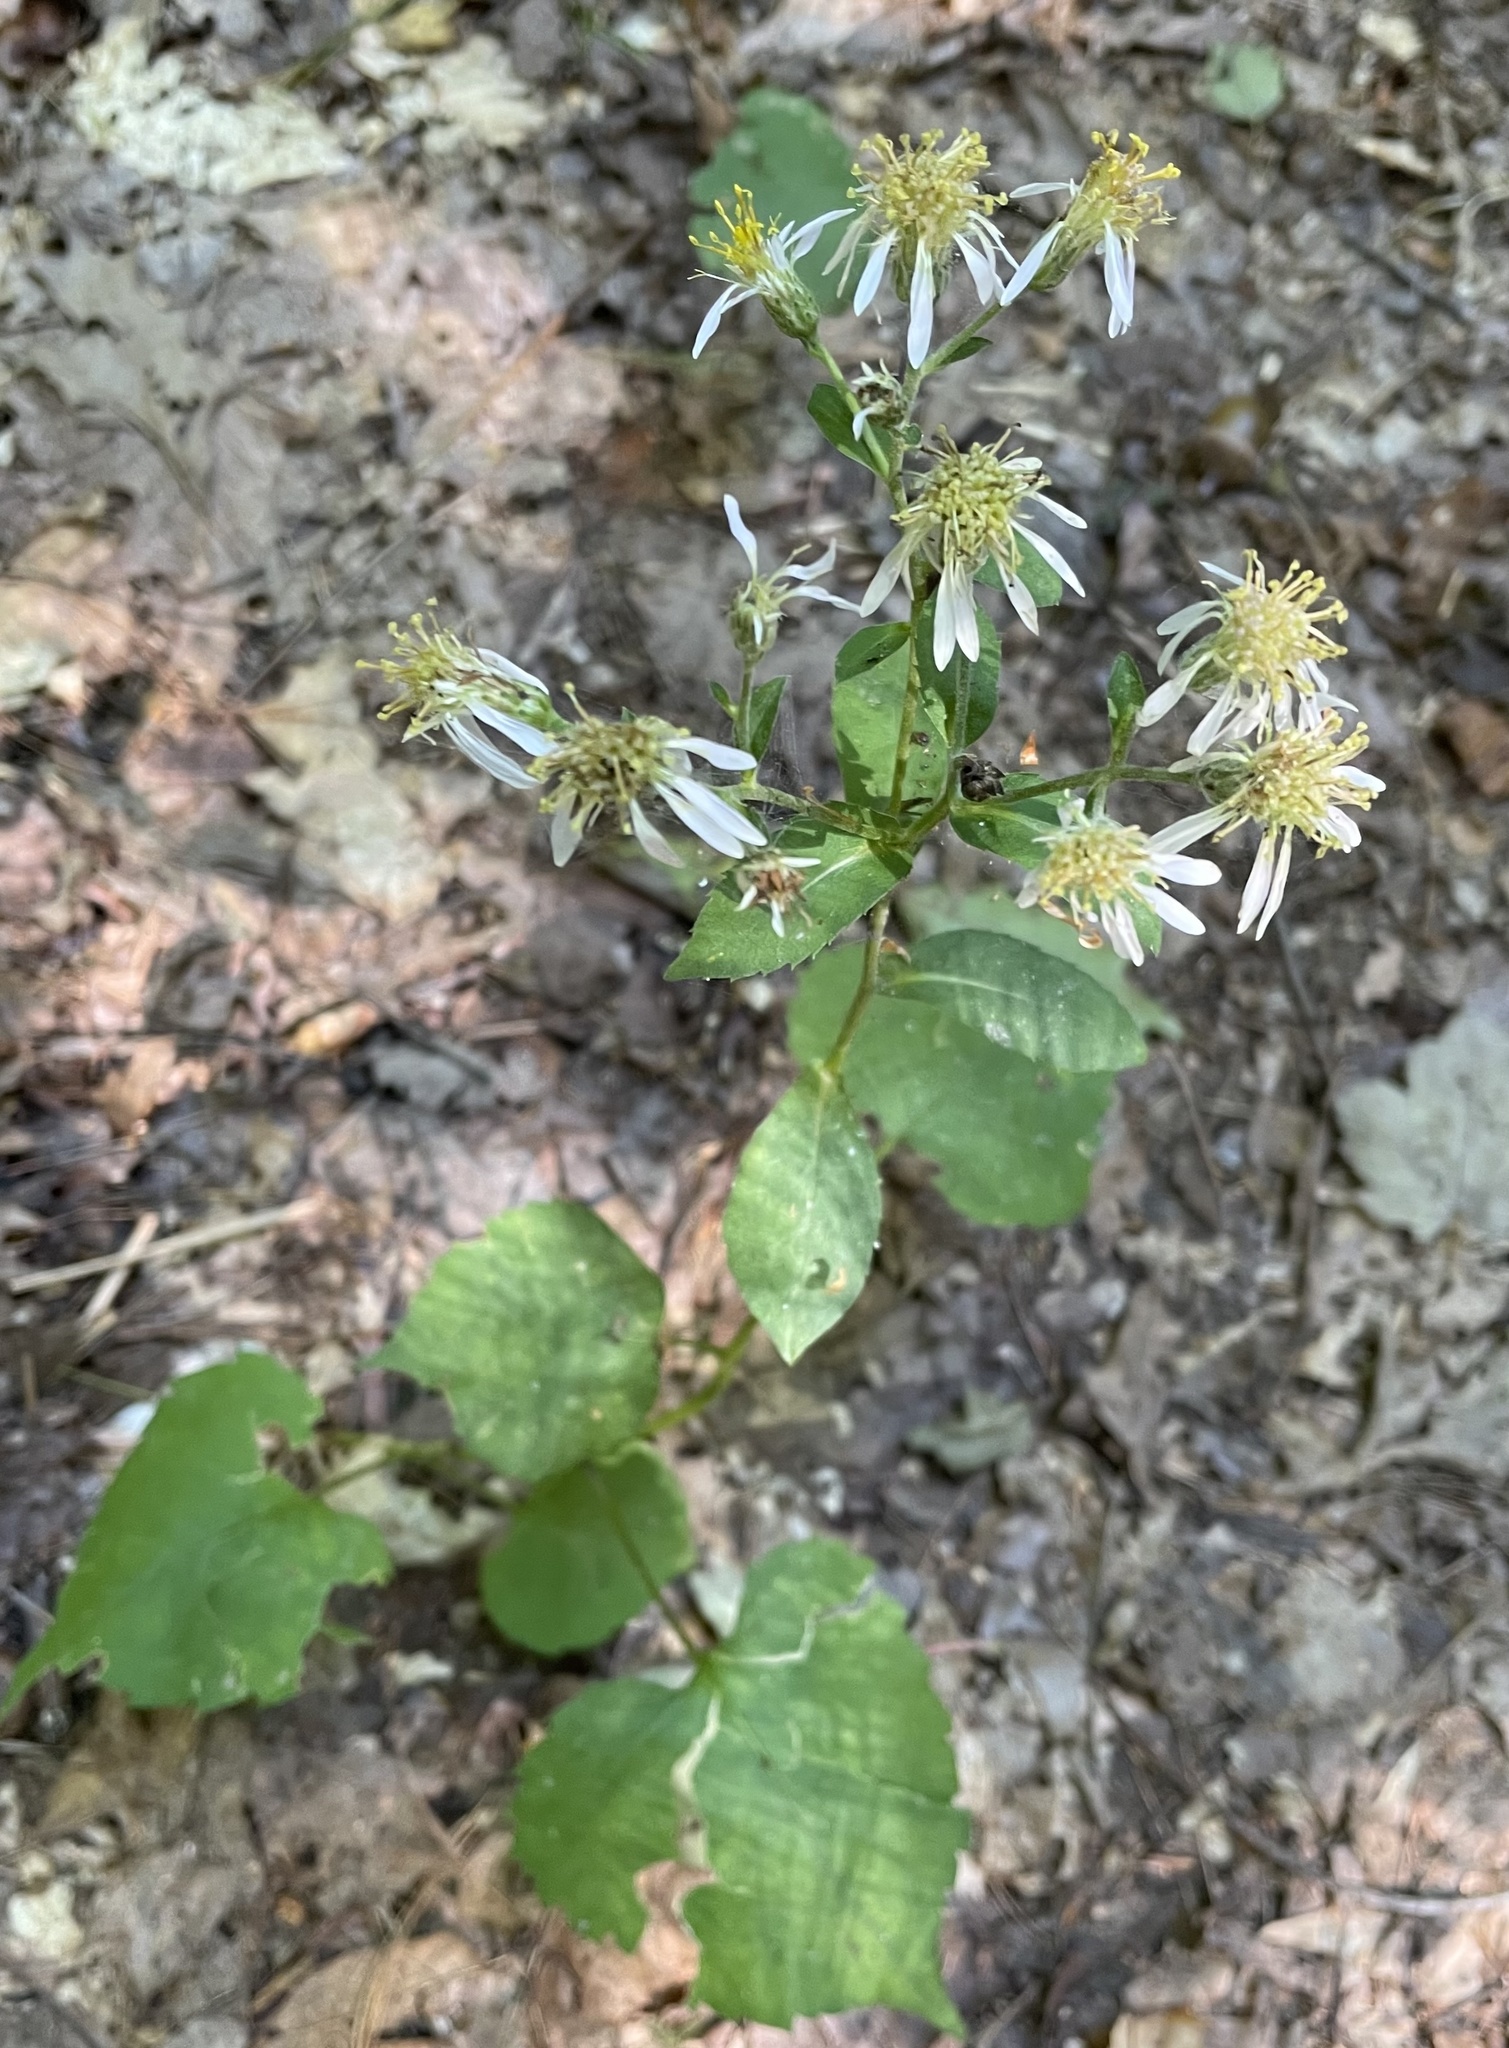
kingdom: Plantae
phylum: Tracheophyta
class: Magnoliopsida
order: Asterales
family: Asteraceae
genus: Eurybia
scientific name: Eurybia macrophylla
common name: Big-leaved aster
